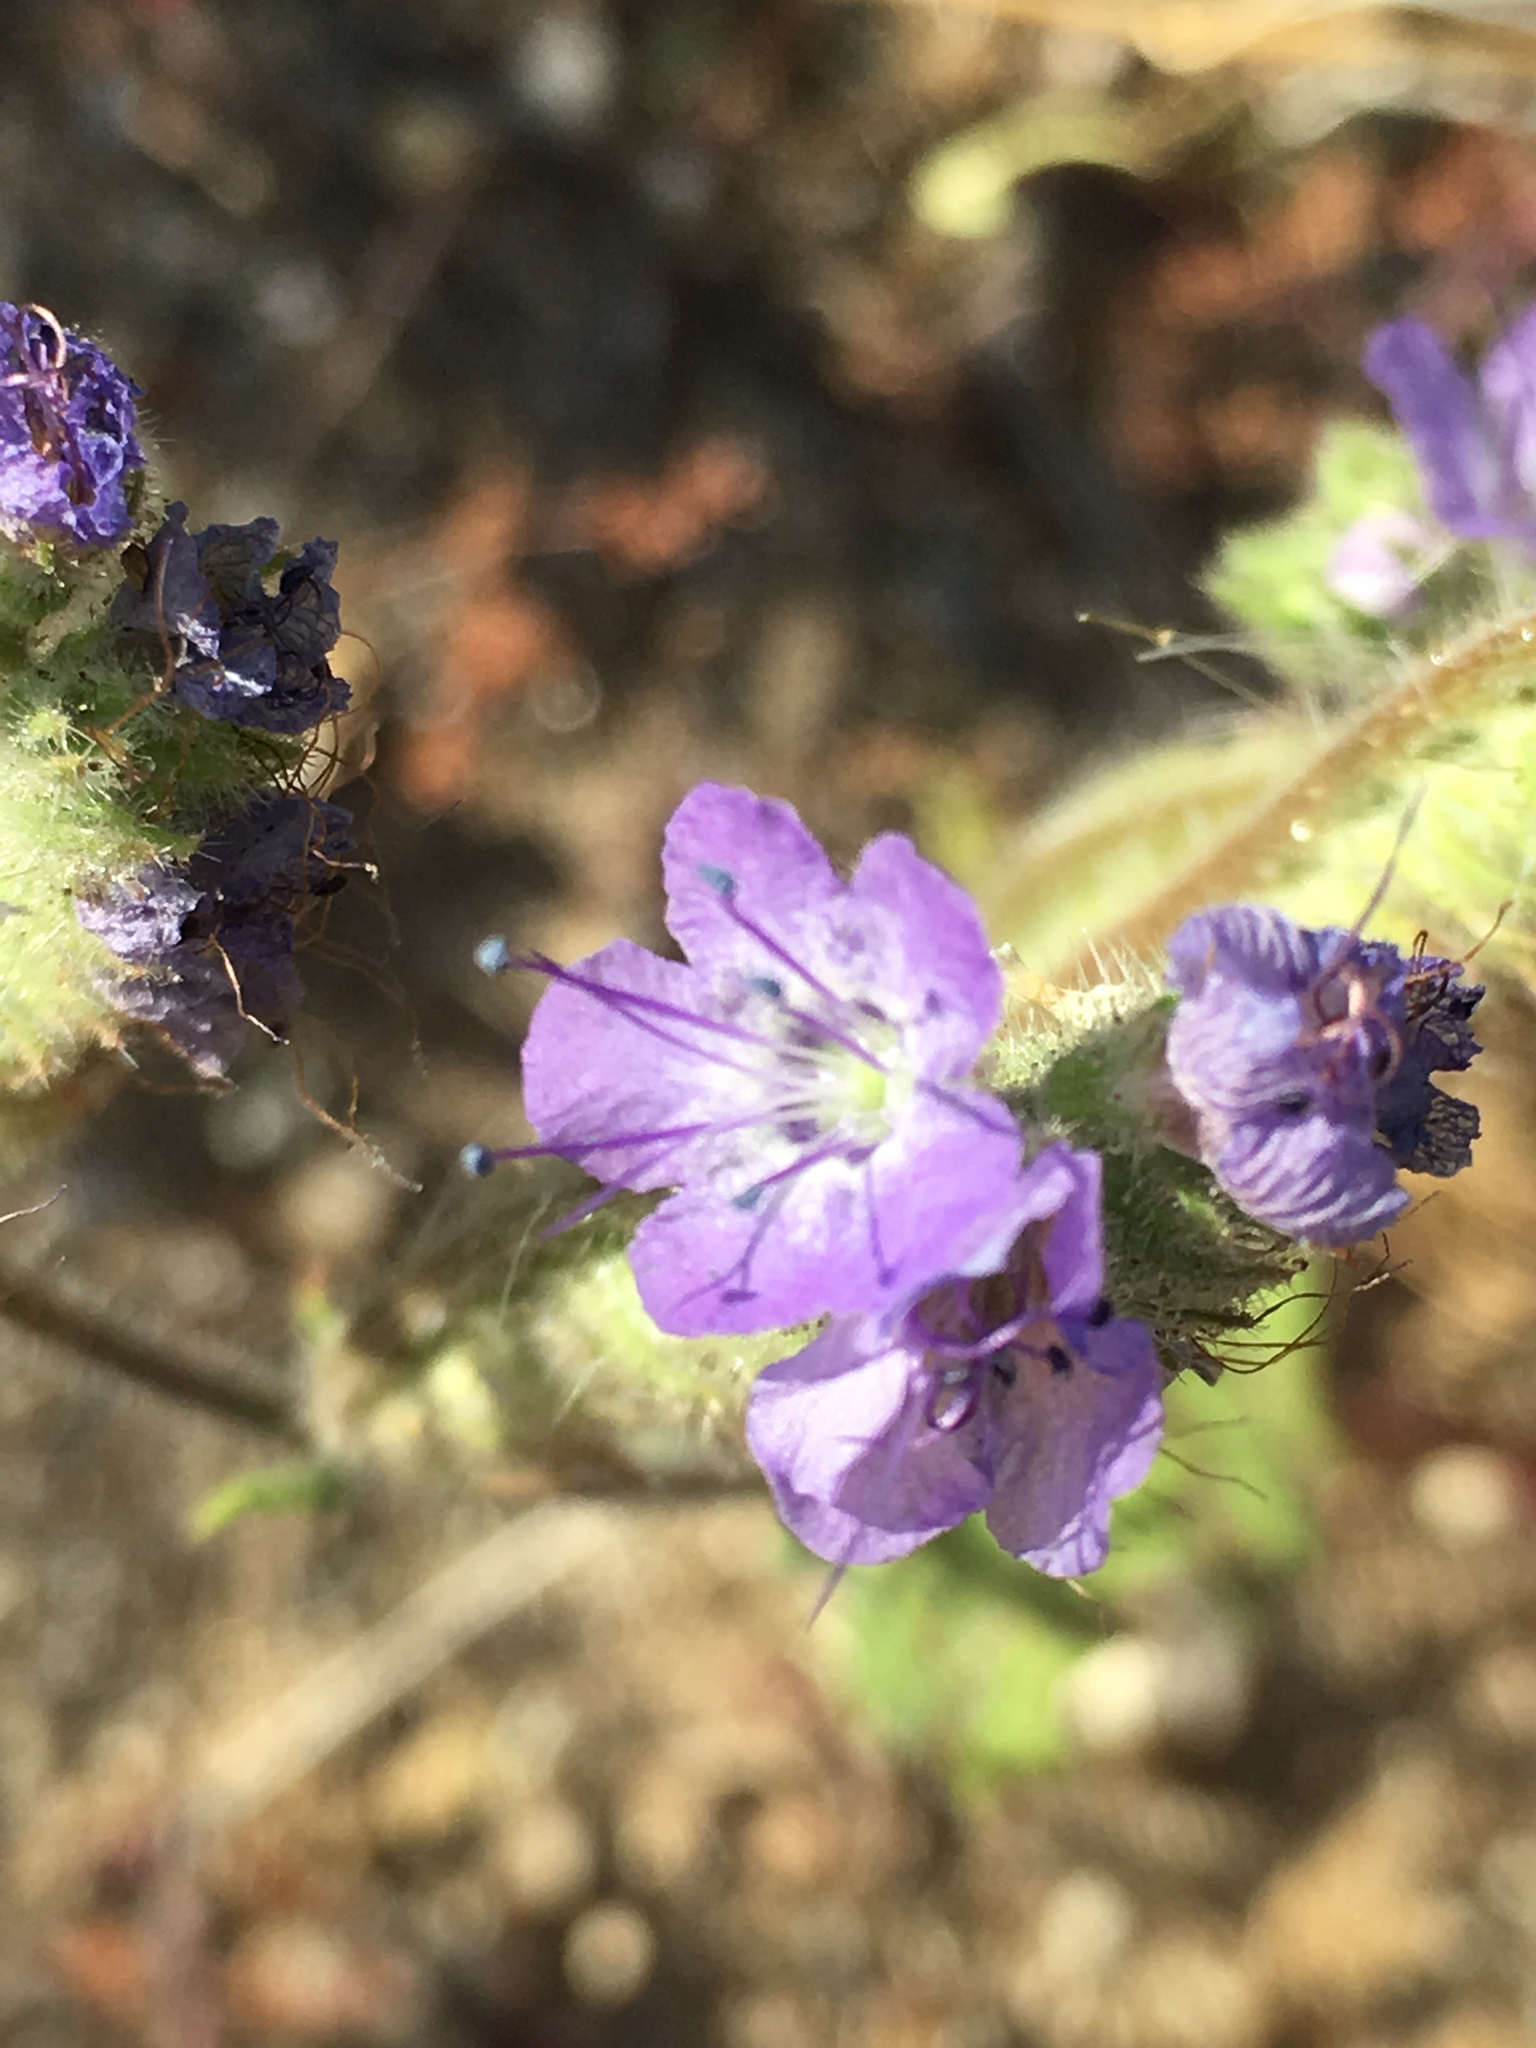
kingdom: Plantae
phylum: Tracheophyta
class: Magnoliopsida
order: Boraginales
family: Hydrophyllaceae
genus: Phacelia
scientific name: Phacelia distans
